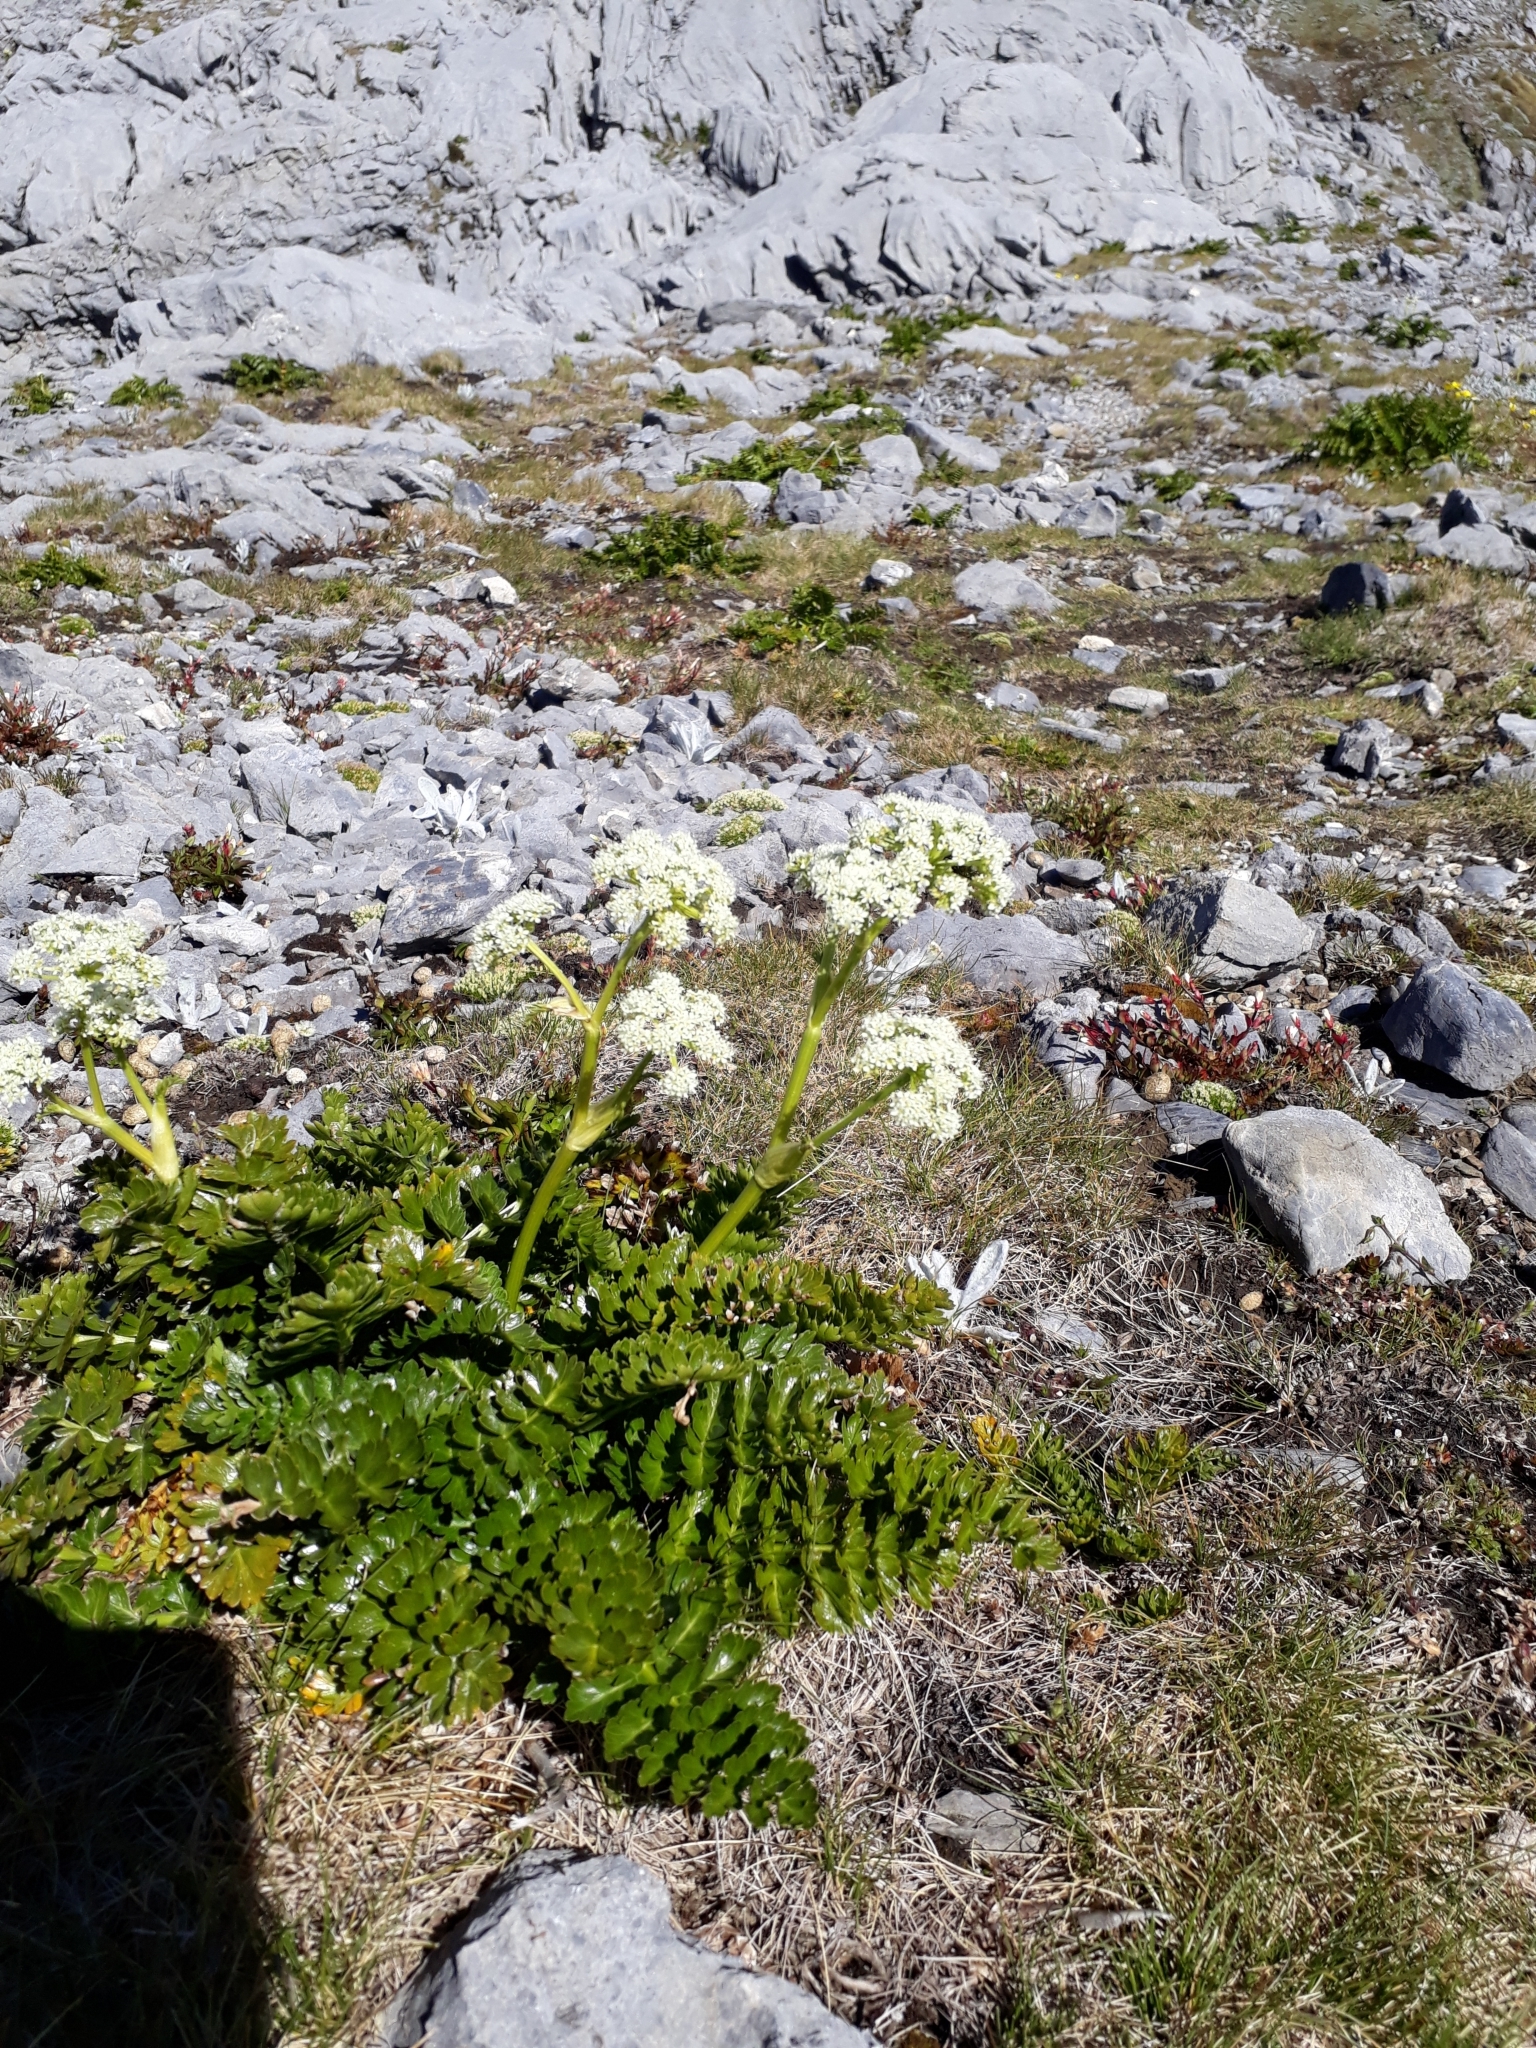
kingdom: Plantae
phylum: Tracheophyta
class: Magnoliopsida
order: Apiales
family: Apiaceae
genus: Anisotome
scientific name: Anisotome pilifera
